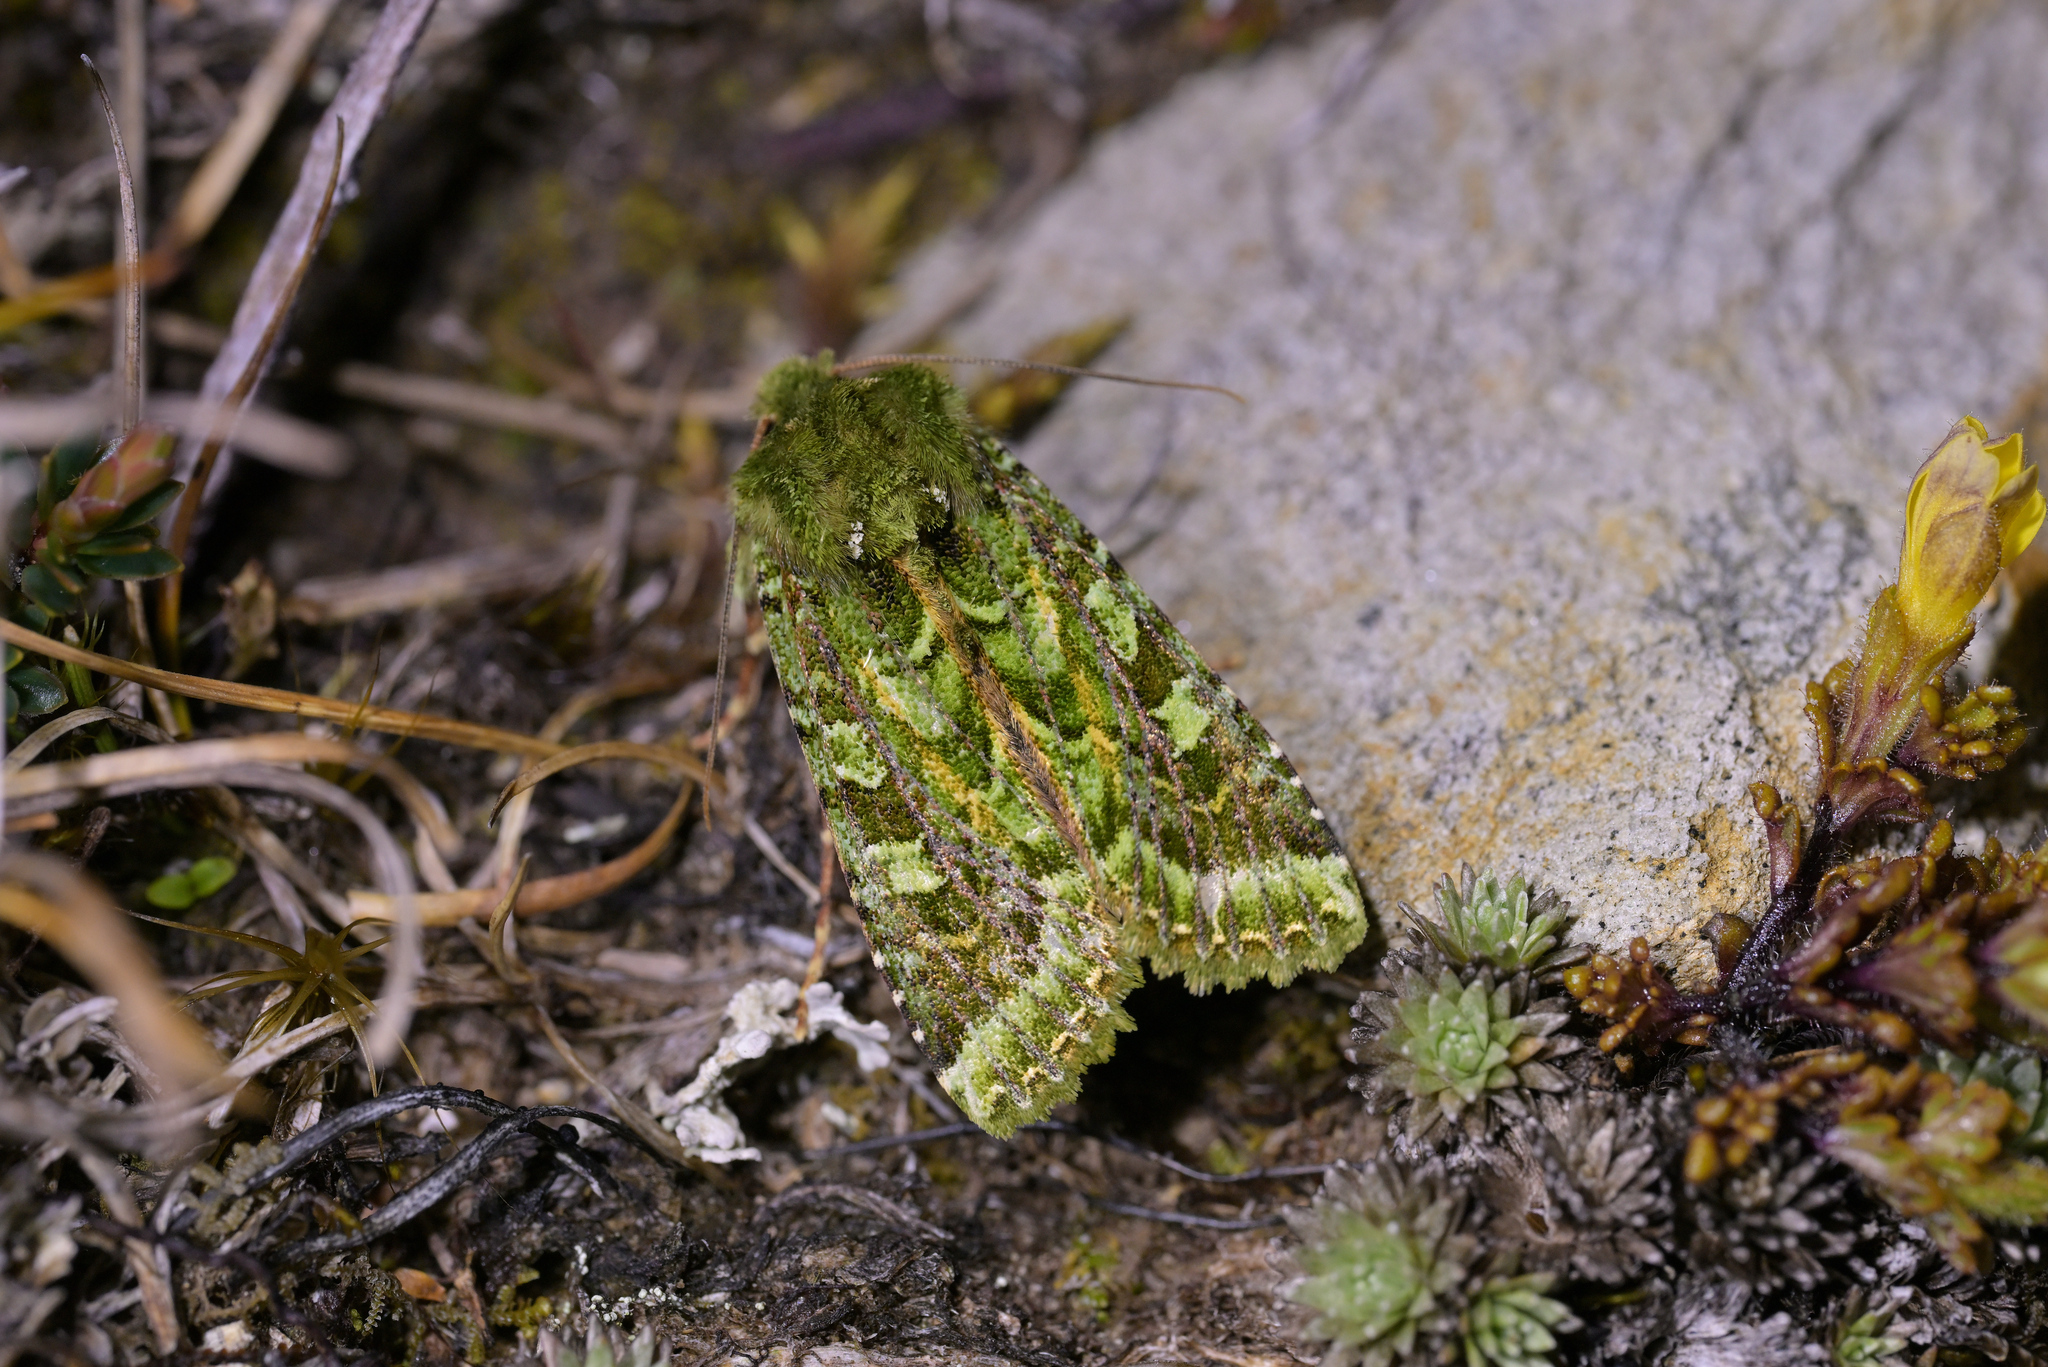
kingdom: Animalia
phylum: Arthropoda
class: Insecta
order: Lepidoptera
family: Noctuidae
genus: Feredayia
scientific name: Feredayia grammosa
